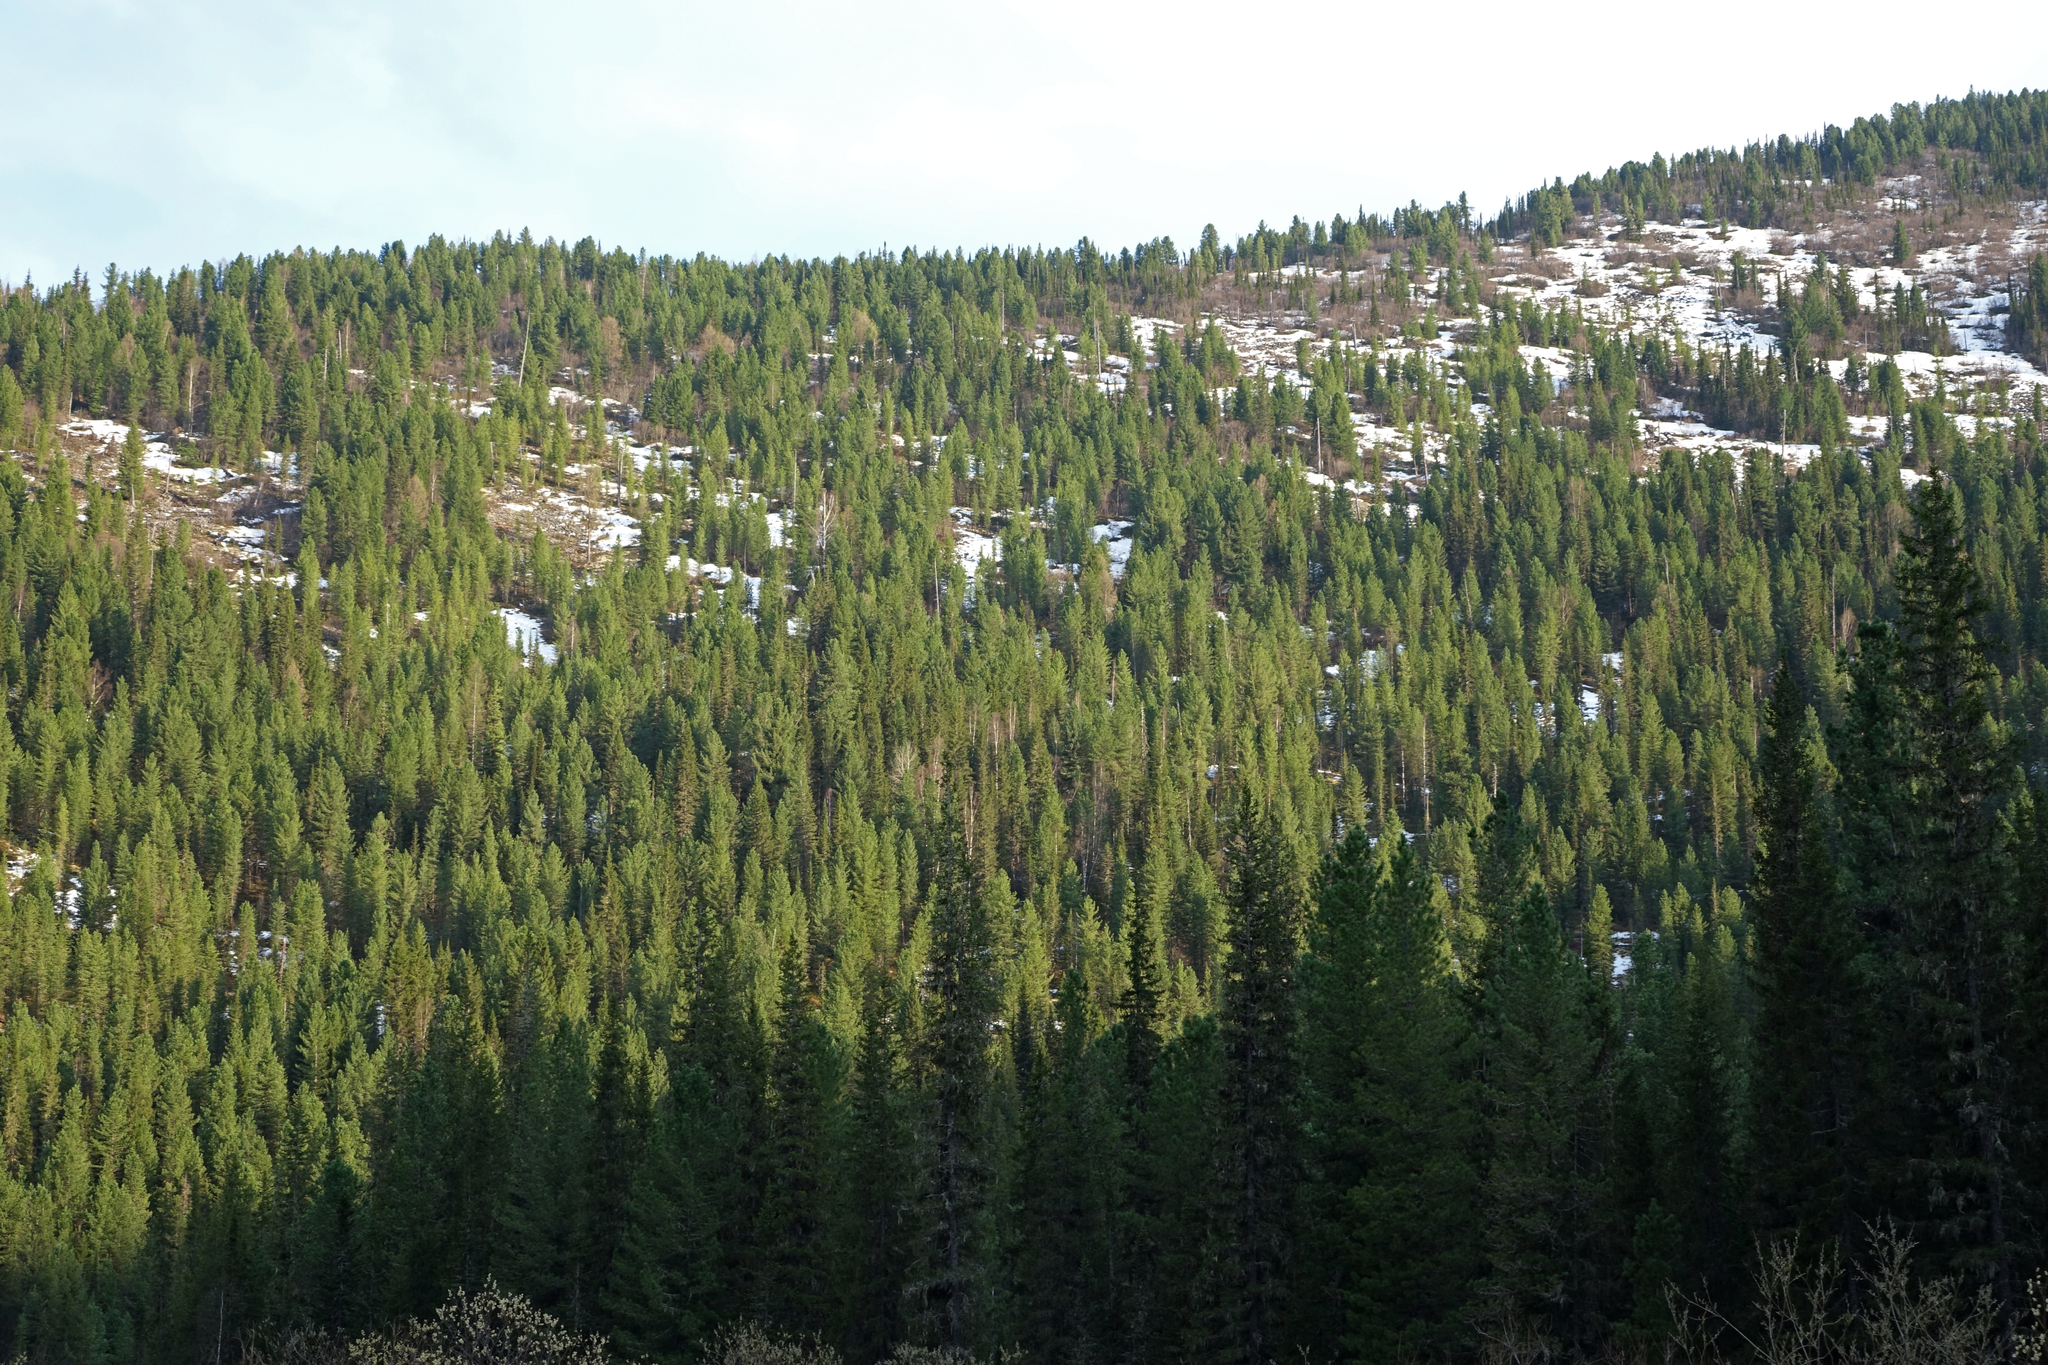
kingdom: Plantae
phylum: Tracheophyta
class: Pinopsida
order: Pinales
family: Pinaceae
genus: Picea
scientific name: Picea obovata
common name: Siberian spruce
